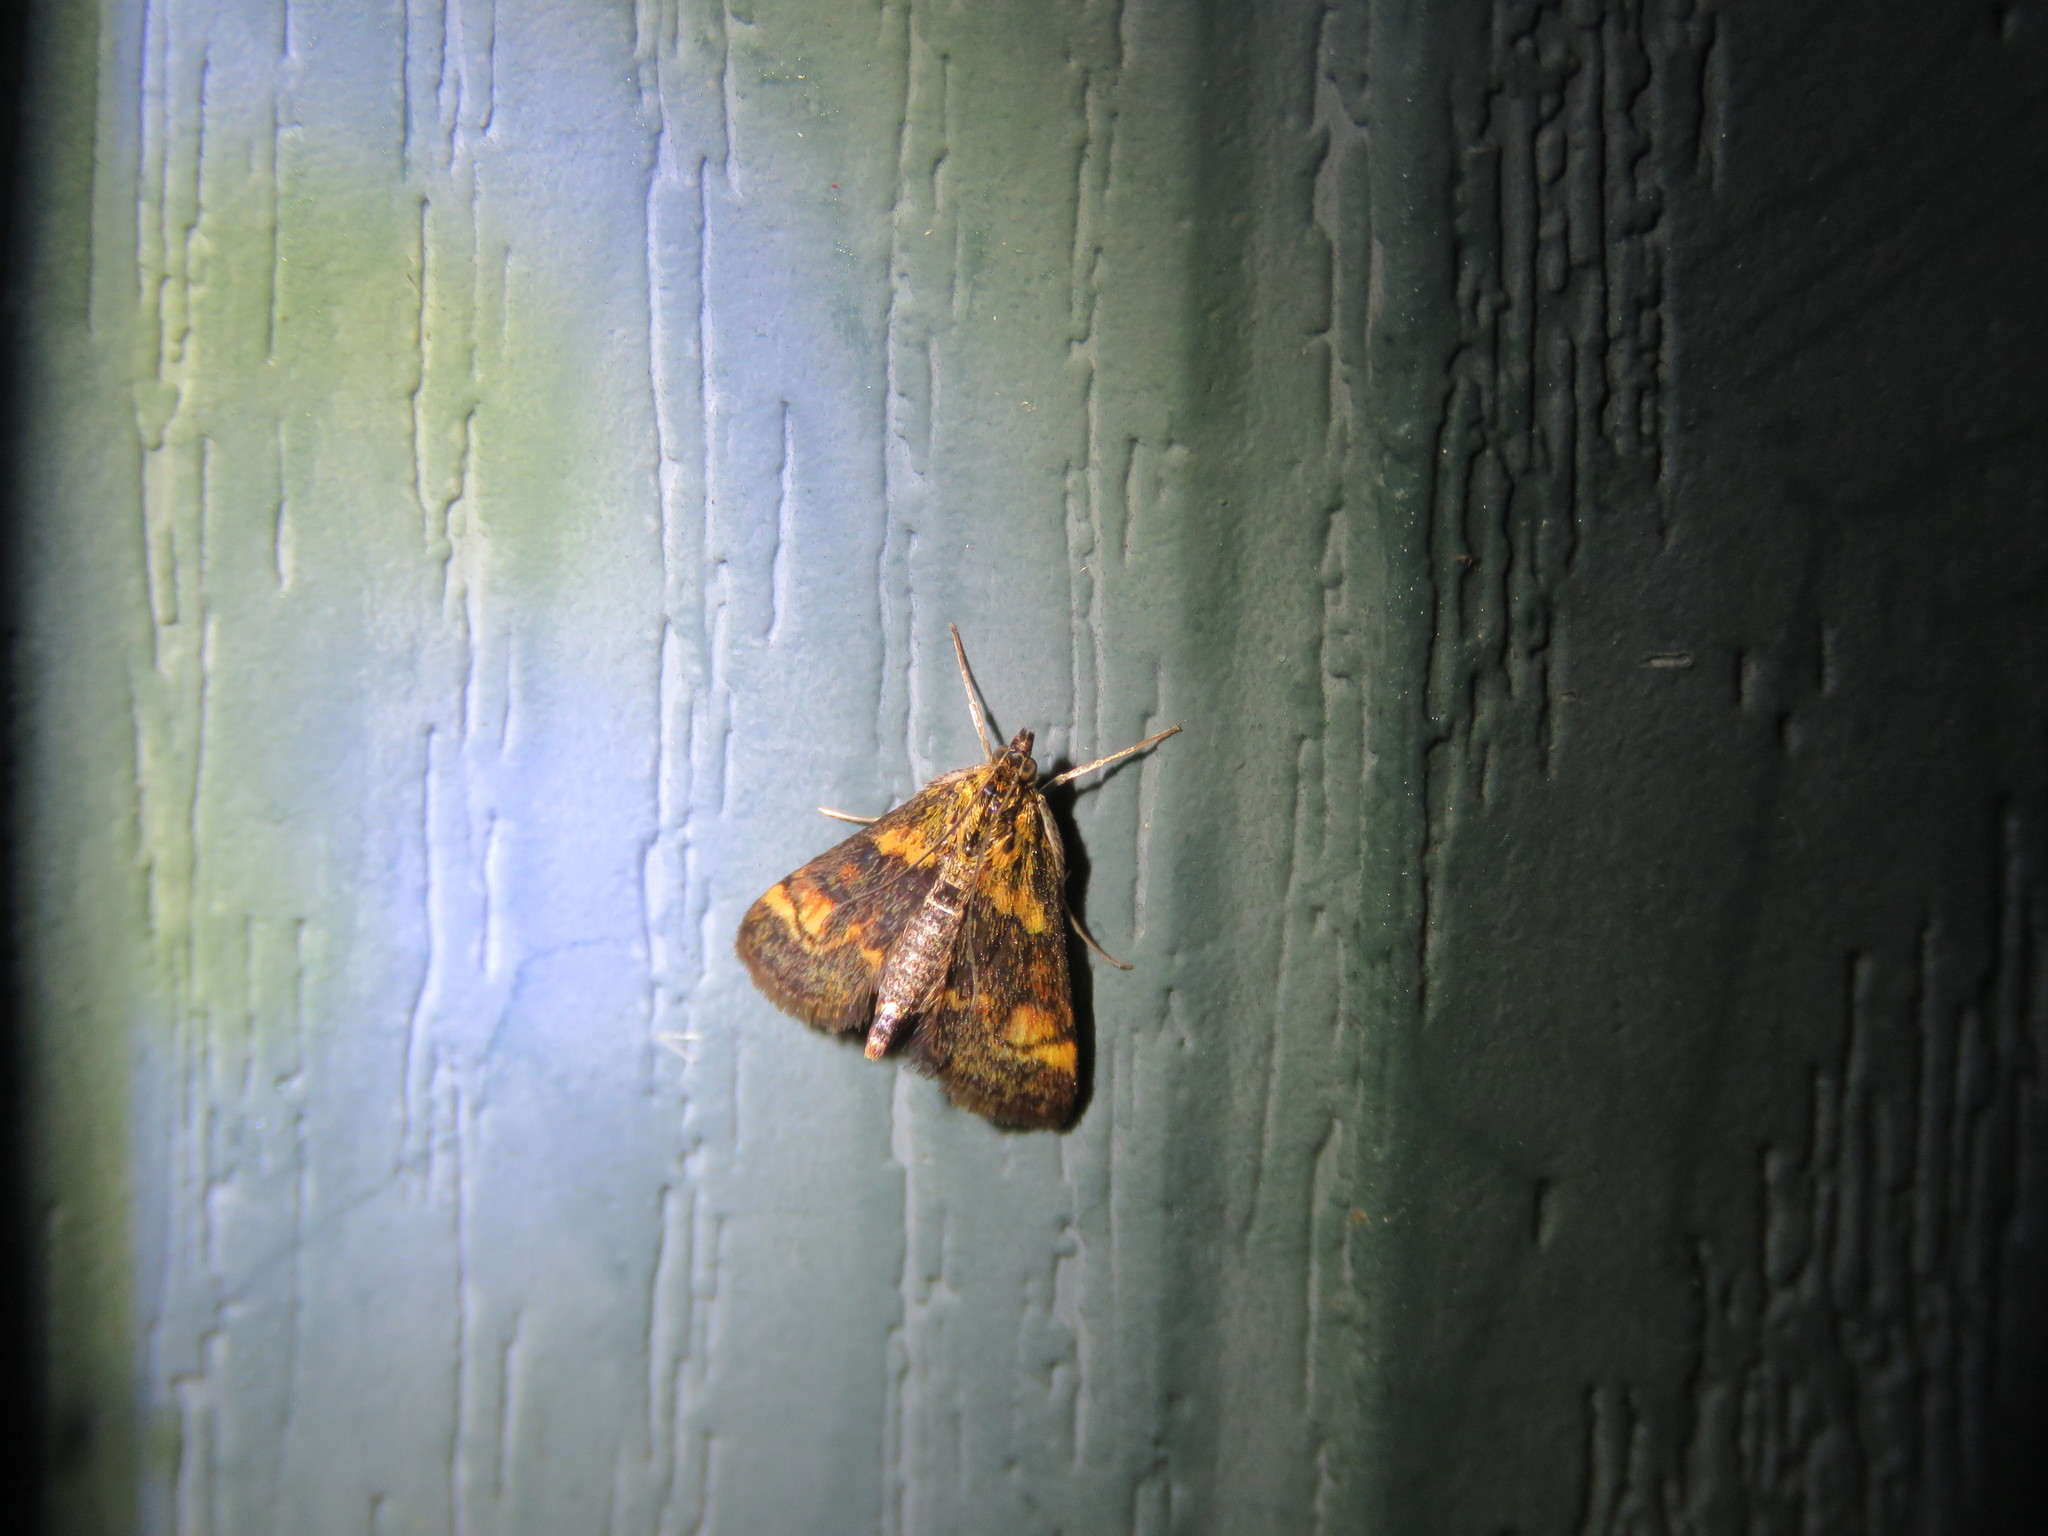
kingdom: Animalia
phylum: Arthropoda
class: Insecta
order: Lepidoptera
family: Crambidae
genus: Pyrausta
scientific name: Pyrausta orphisalis
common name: Orange mint moth
